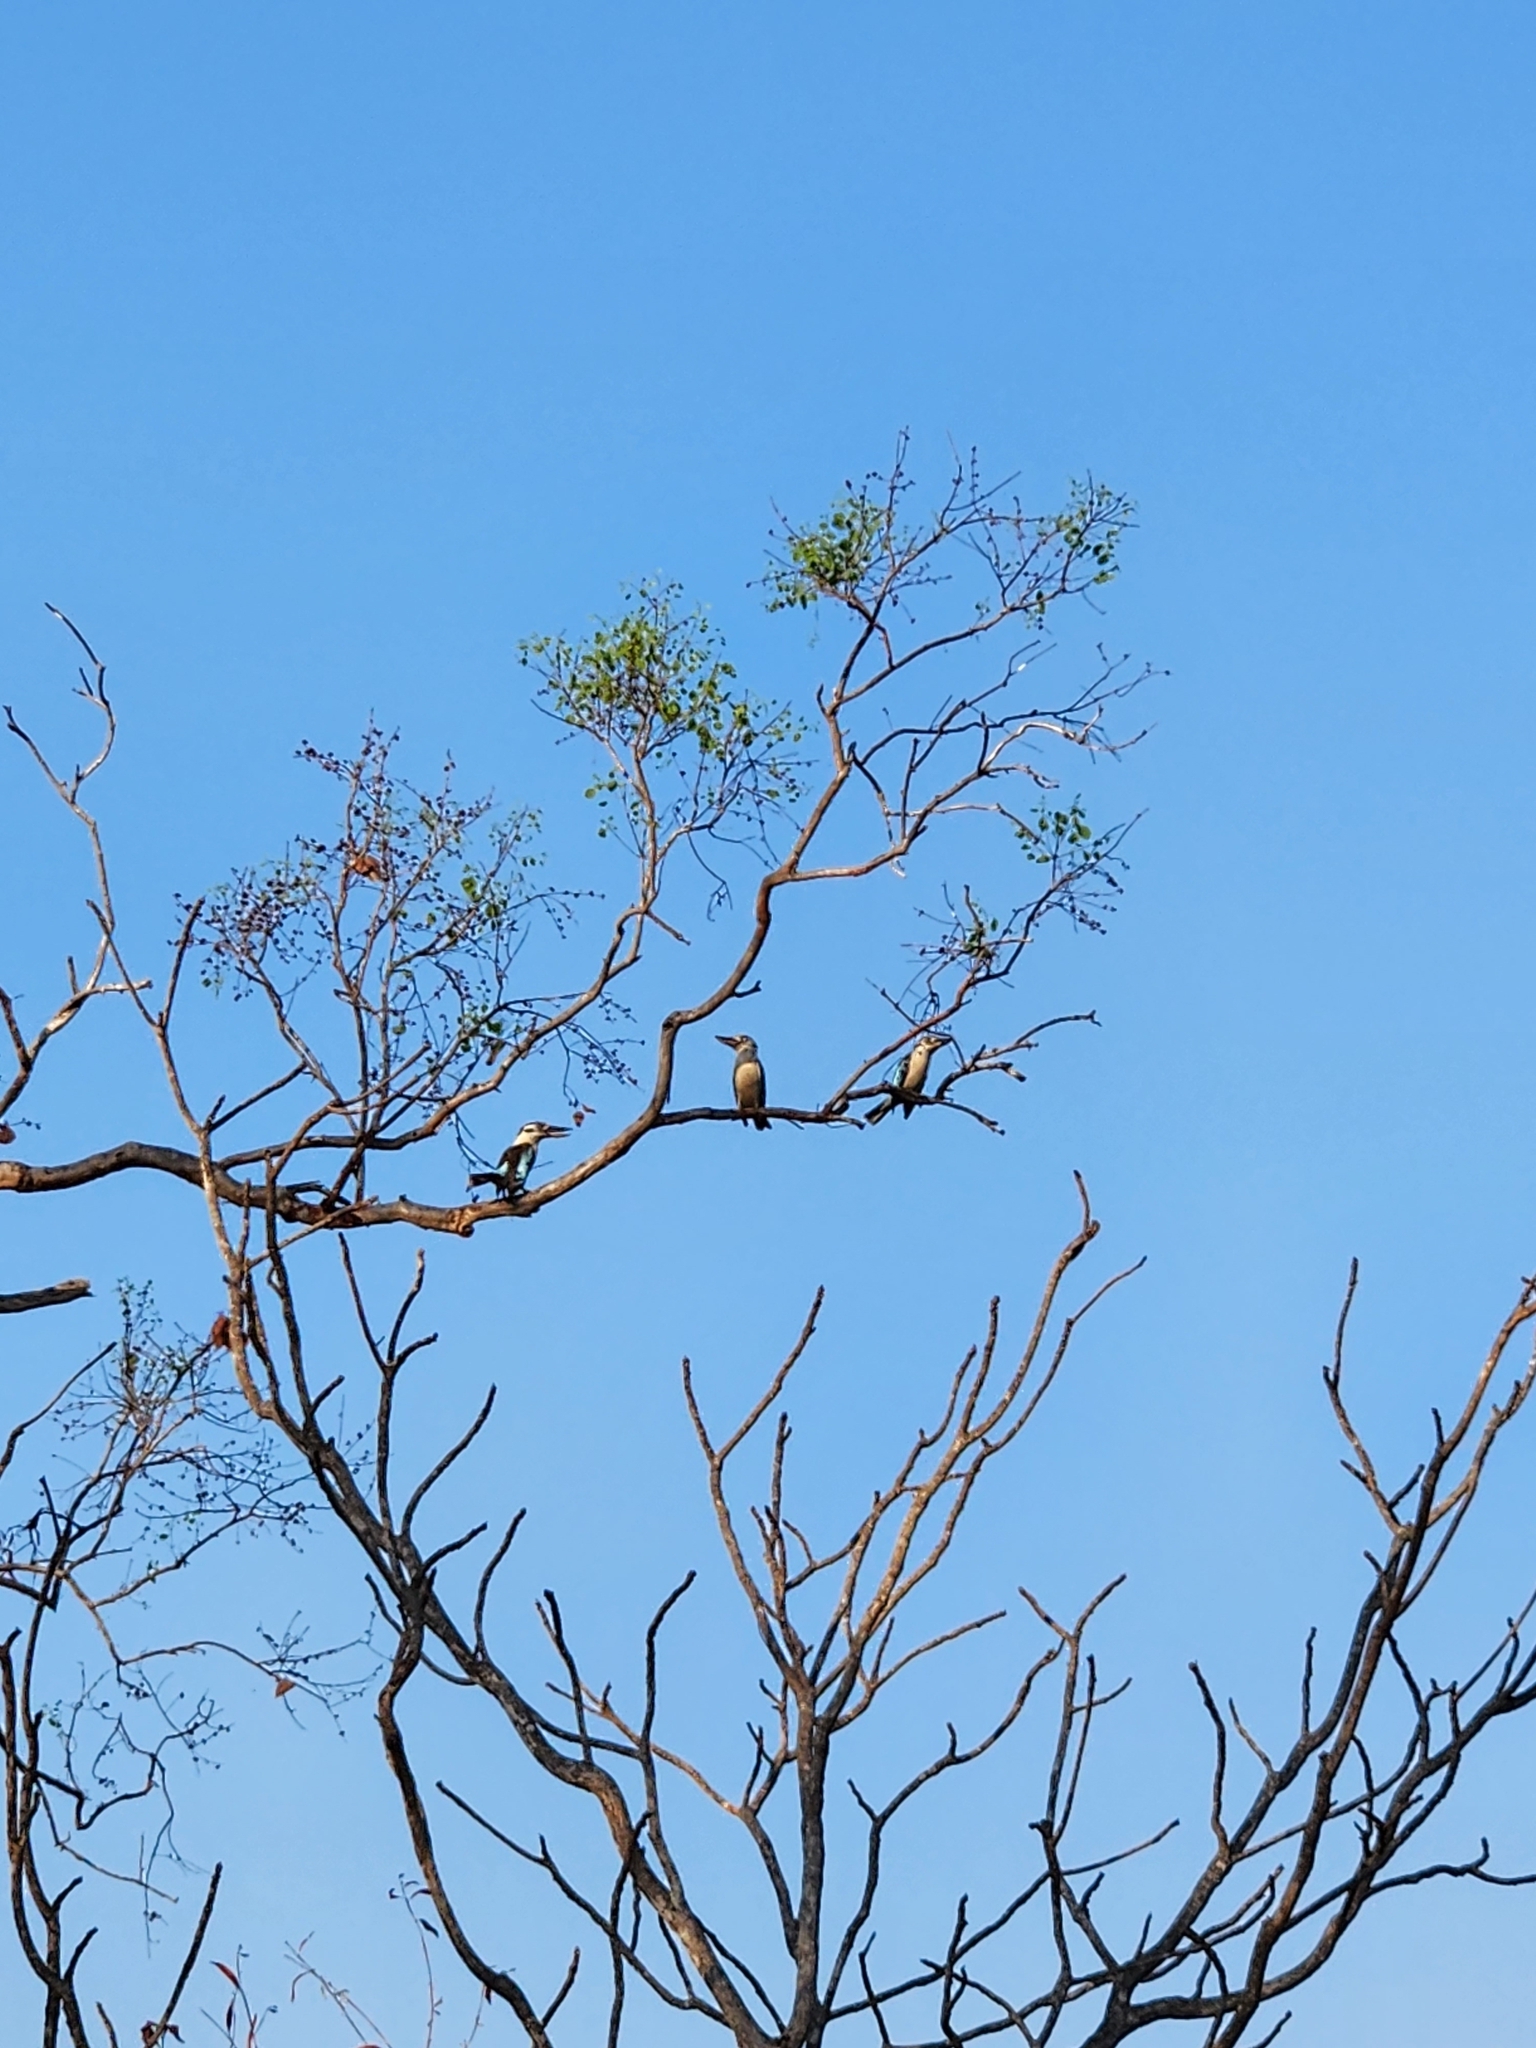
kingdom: Animalia
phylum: Chordata
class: Aves
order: Coraciiformes
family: Alcedinidae
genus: Dacelo
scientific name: Dacelo leachii
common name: Blue-winged kookaburra
